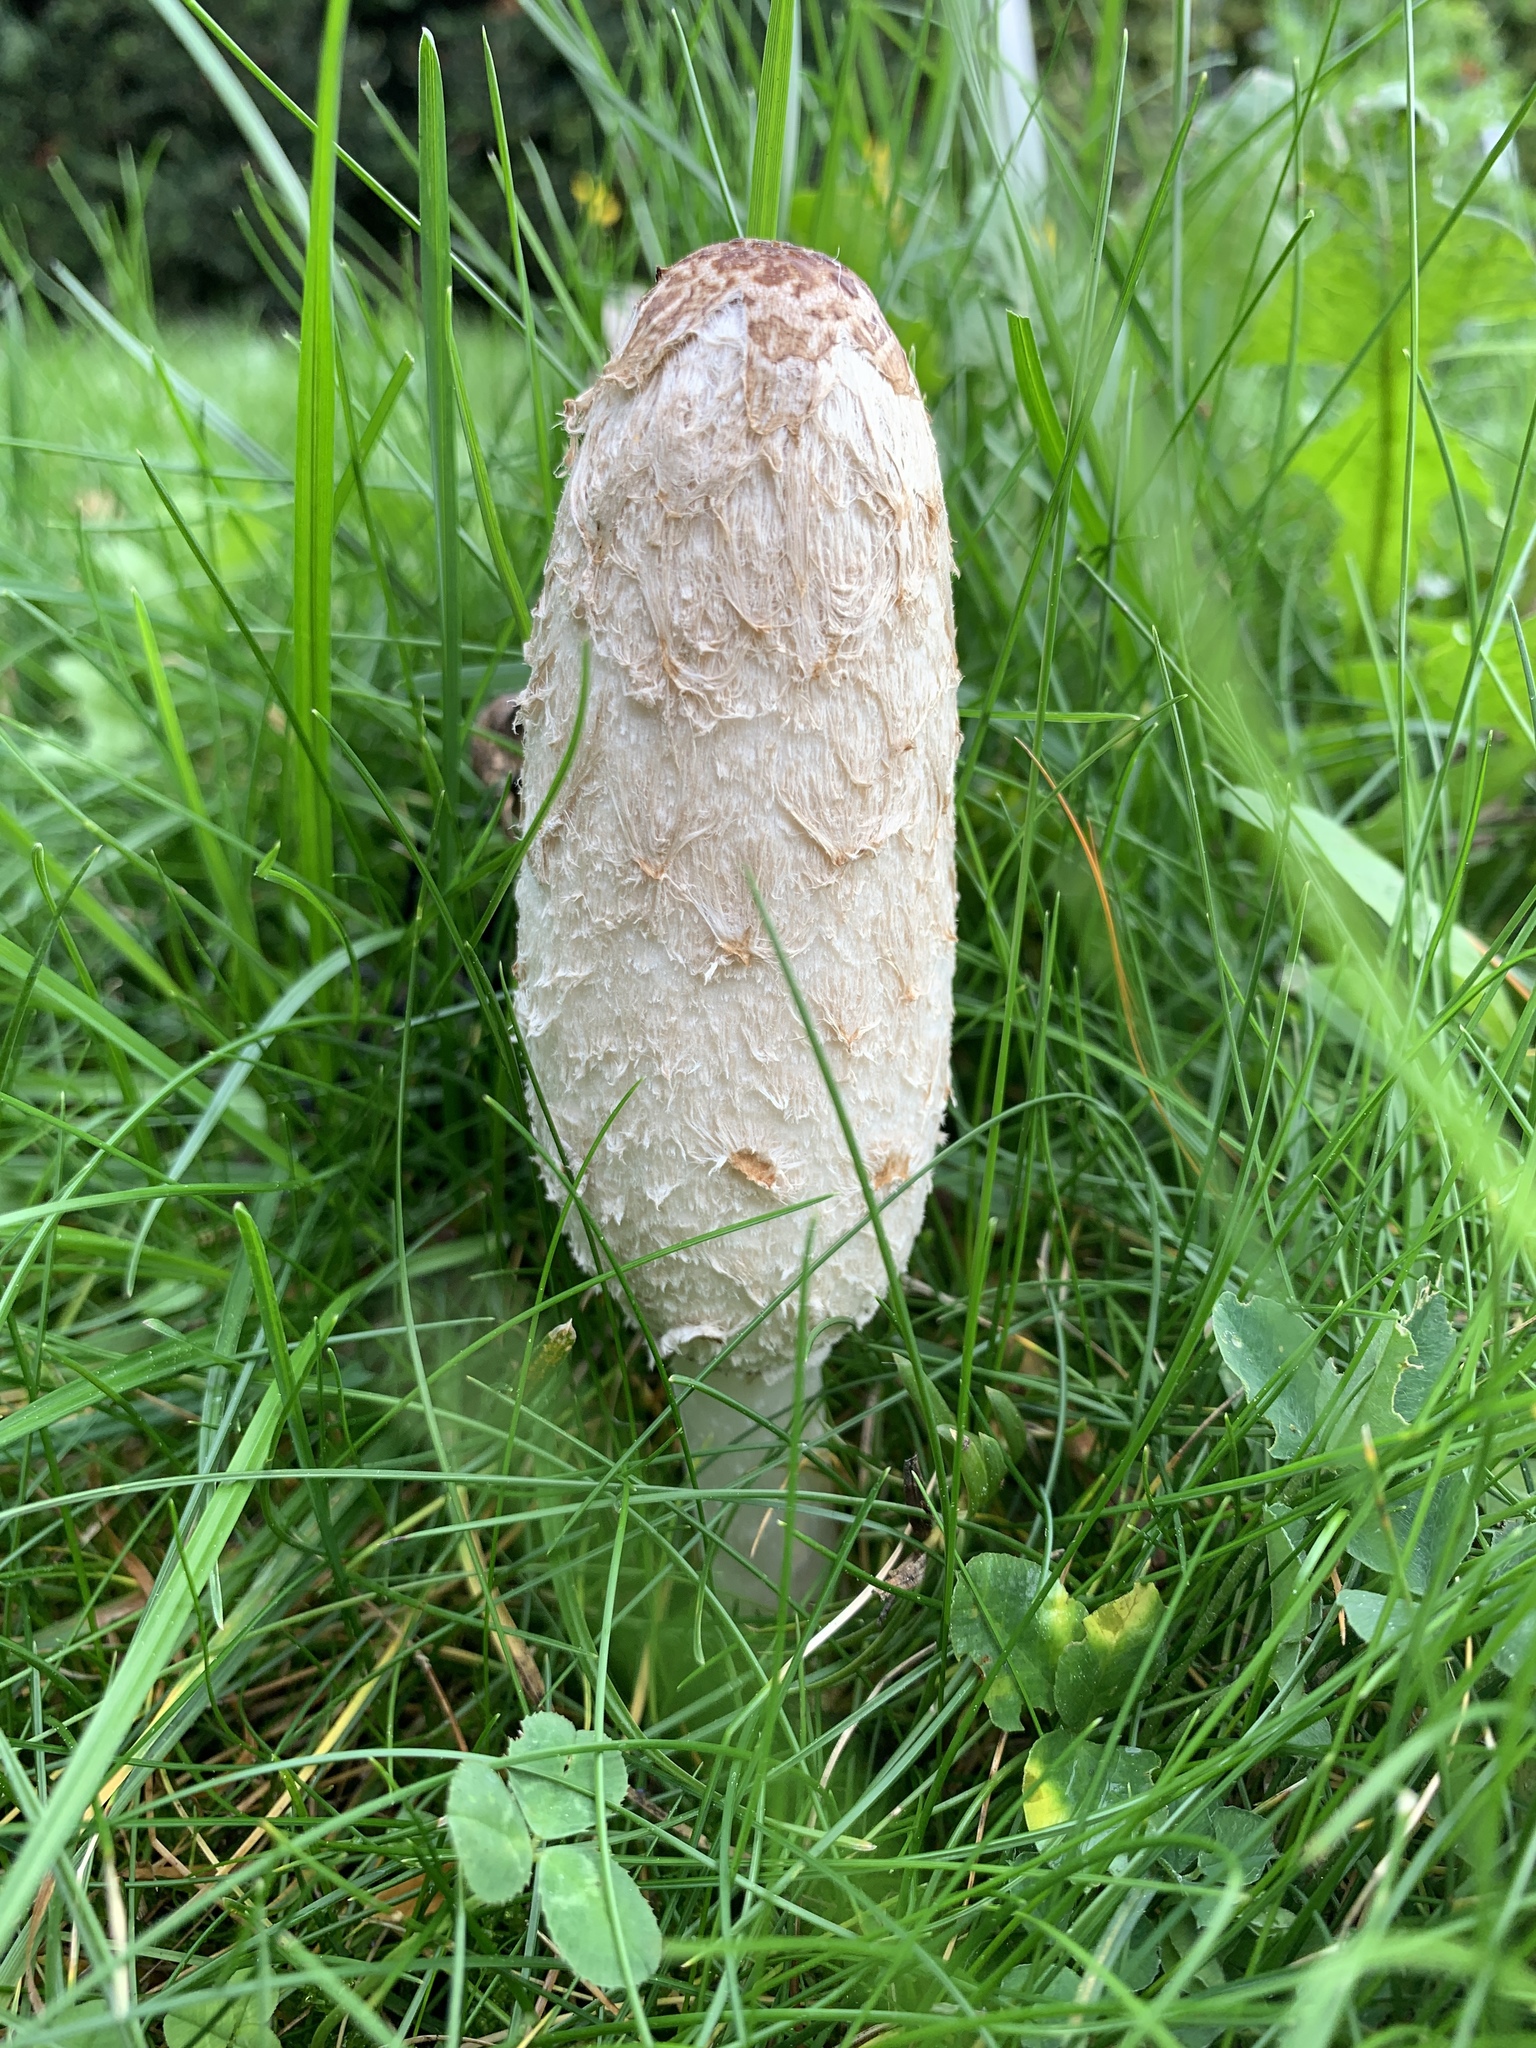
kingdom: Fungi
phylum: Basidiomycota
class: Agaricomycetes
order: Agaricales
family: Agaricaceae
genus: Coprinus
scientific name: Coprinus comatus
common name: Lawyer's wig
